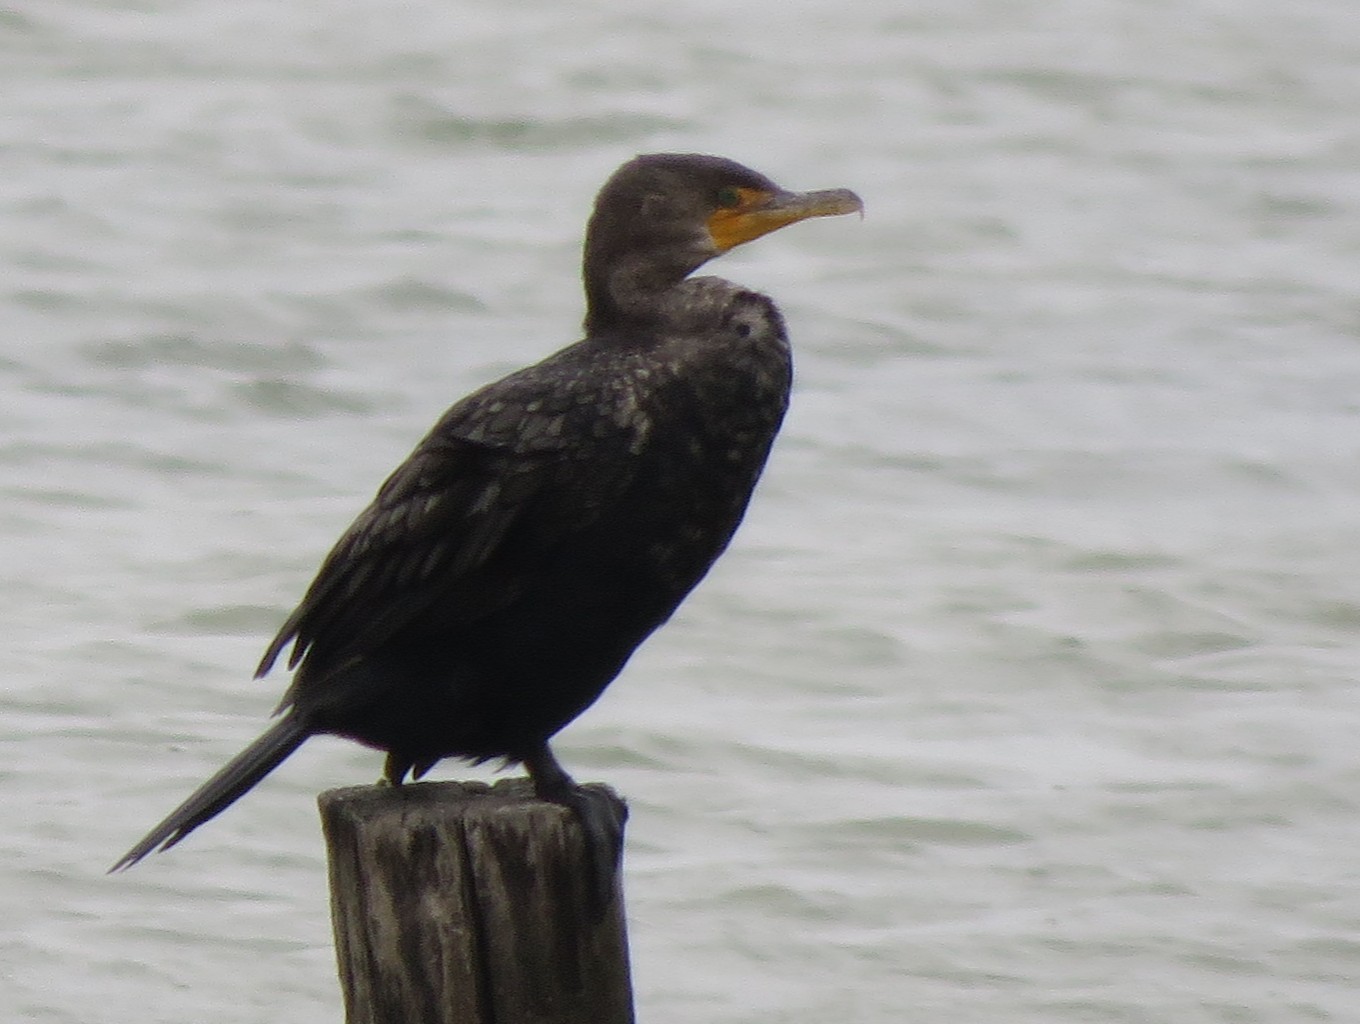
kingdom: Animalia
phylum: Chordata
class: Aves
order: Suliformes
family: Phalacrocoracidae
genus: Phalacrocorax
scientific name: Phalacrocorax auritus
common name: Double-crested cormorant
